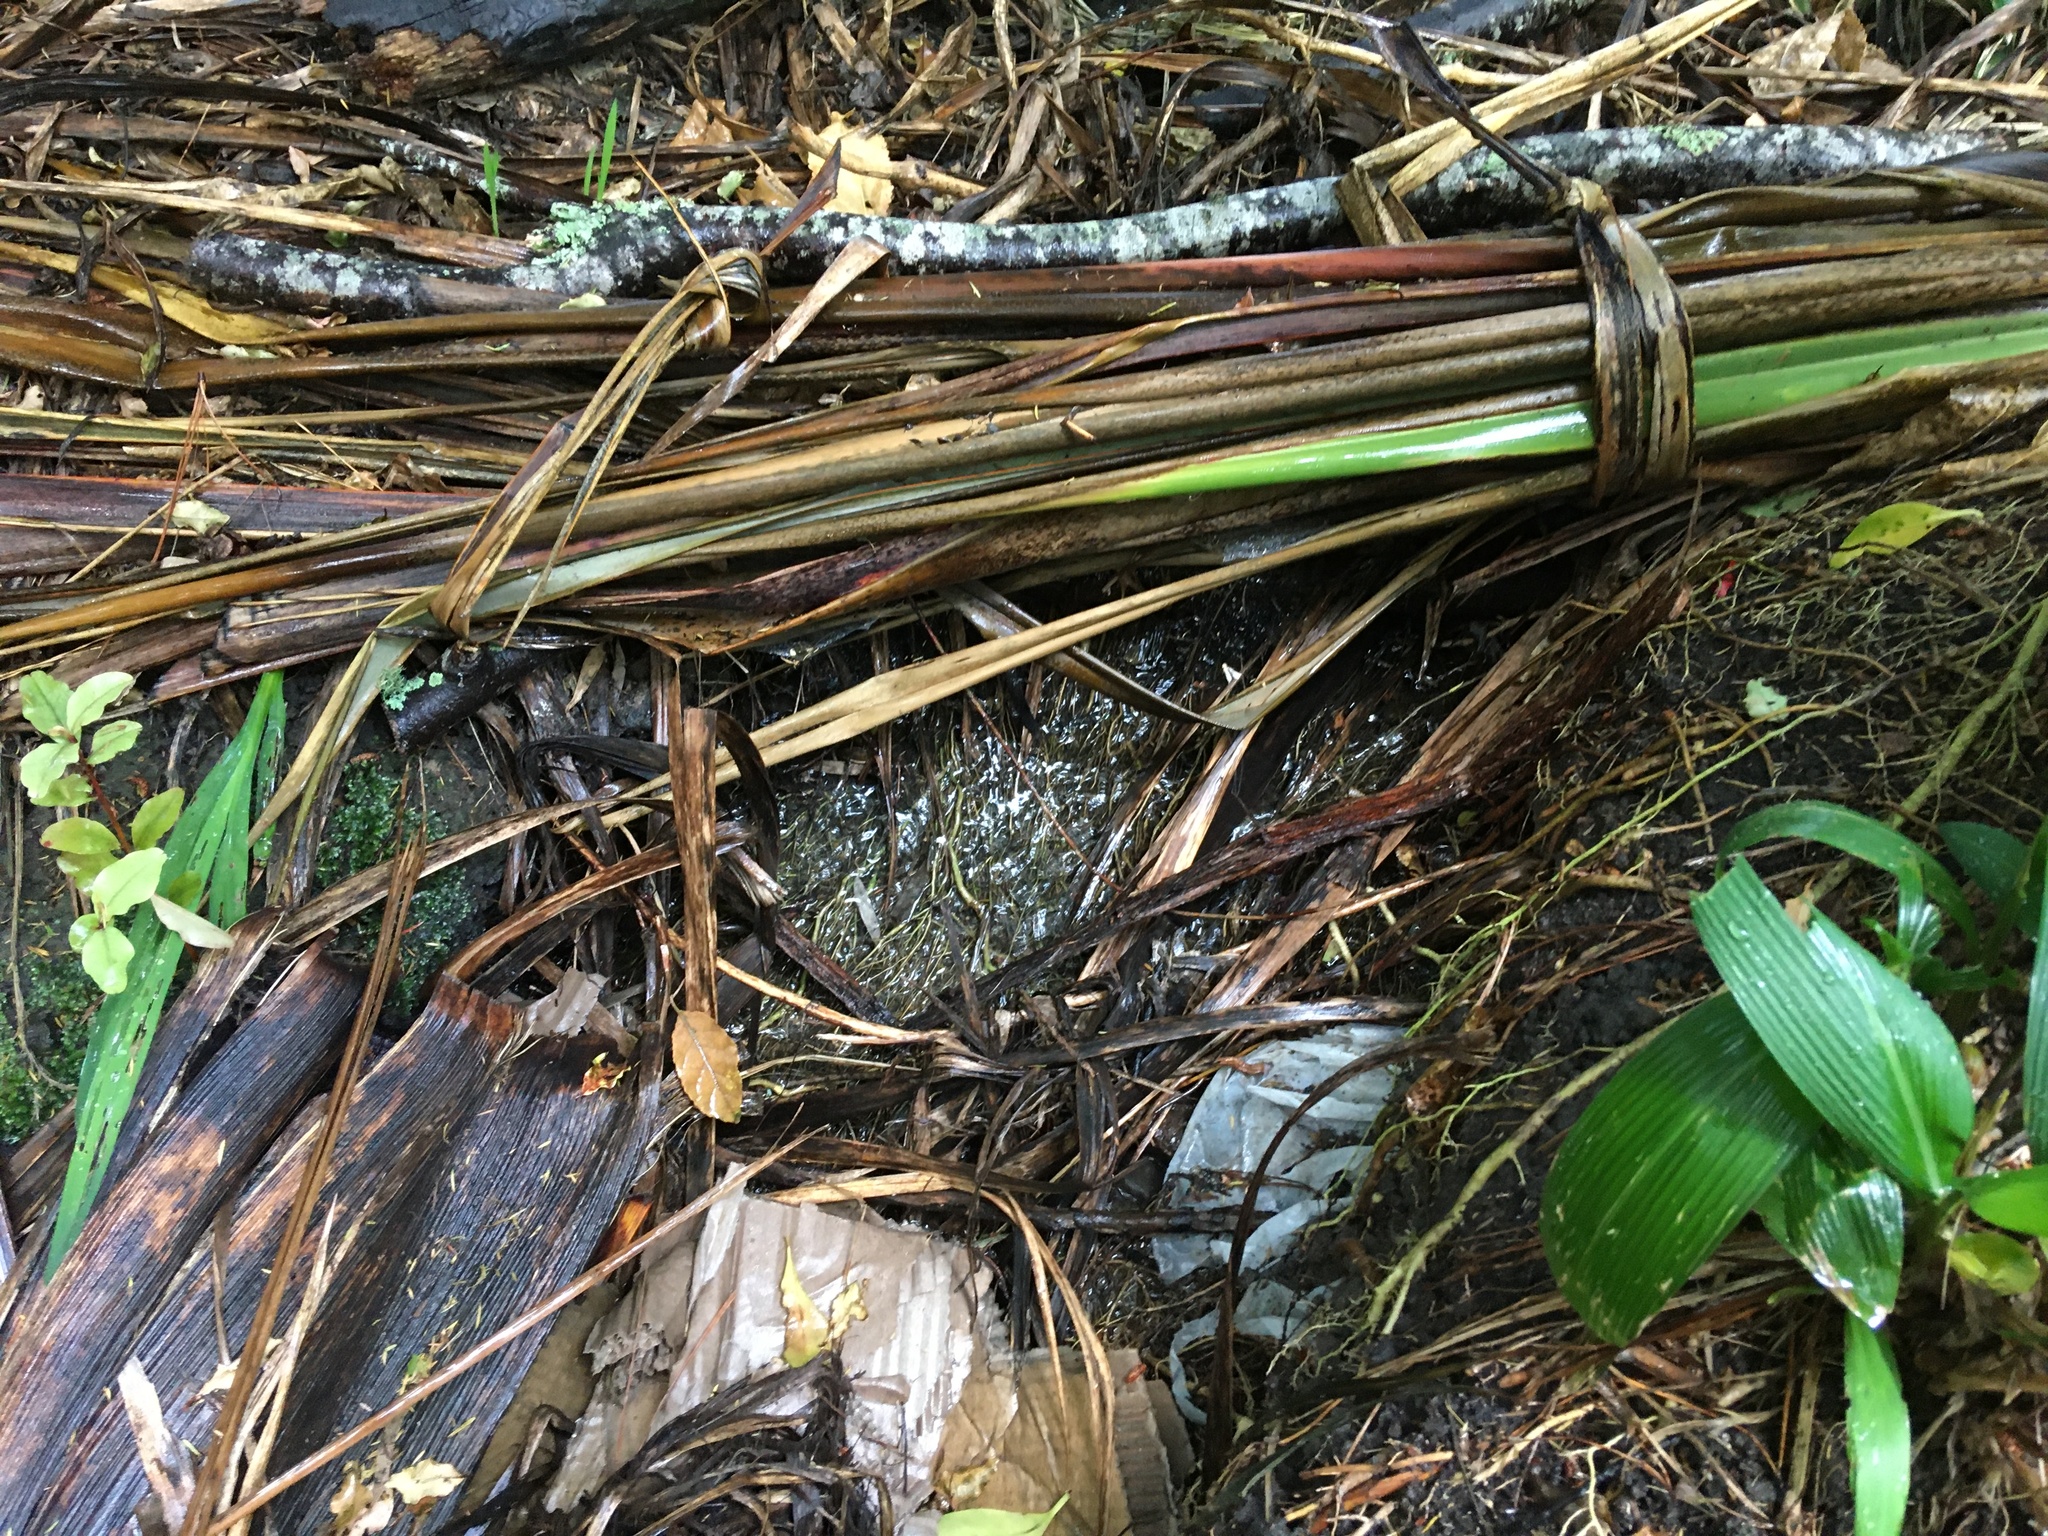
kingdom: Plantae
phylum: Tracheophyta
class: Magnoliopsida
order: Ericales
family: Primulaceae
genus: Myrsine
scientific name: Myrsine australis
